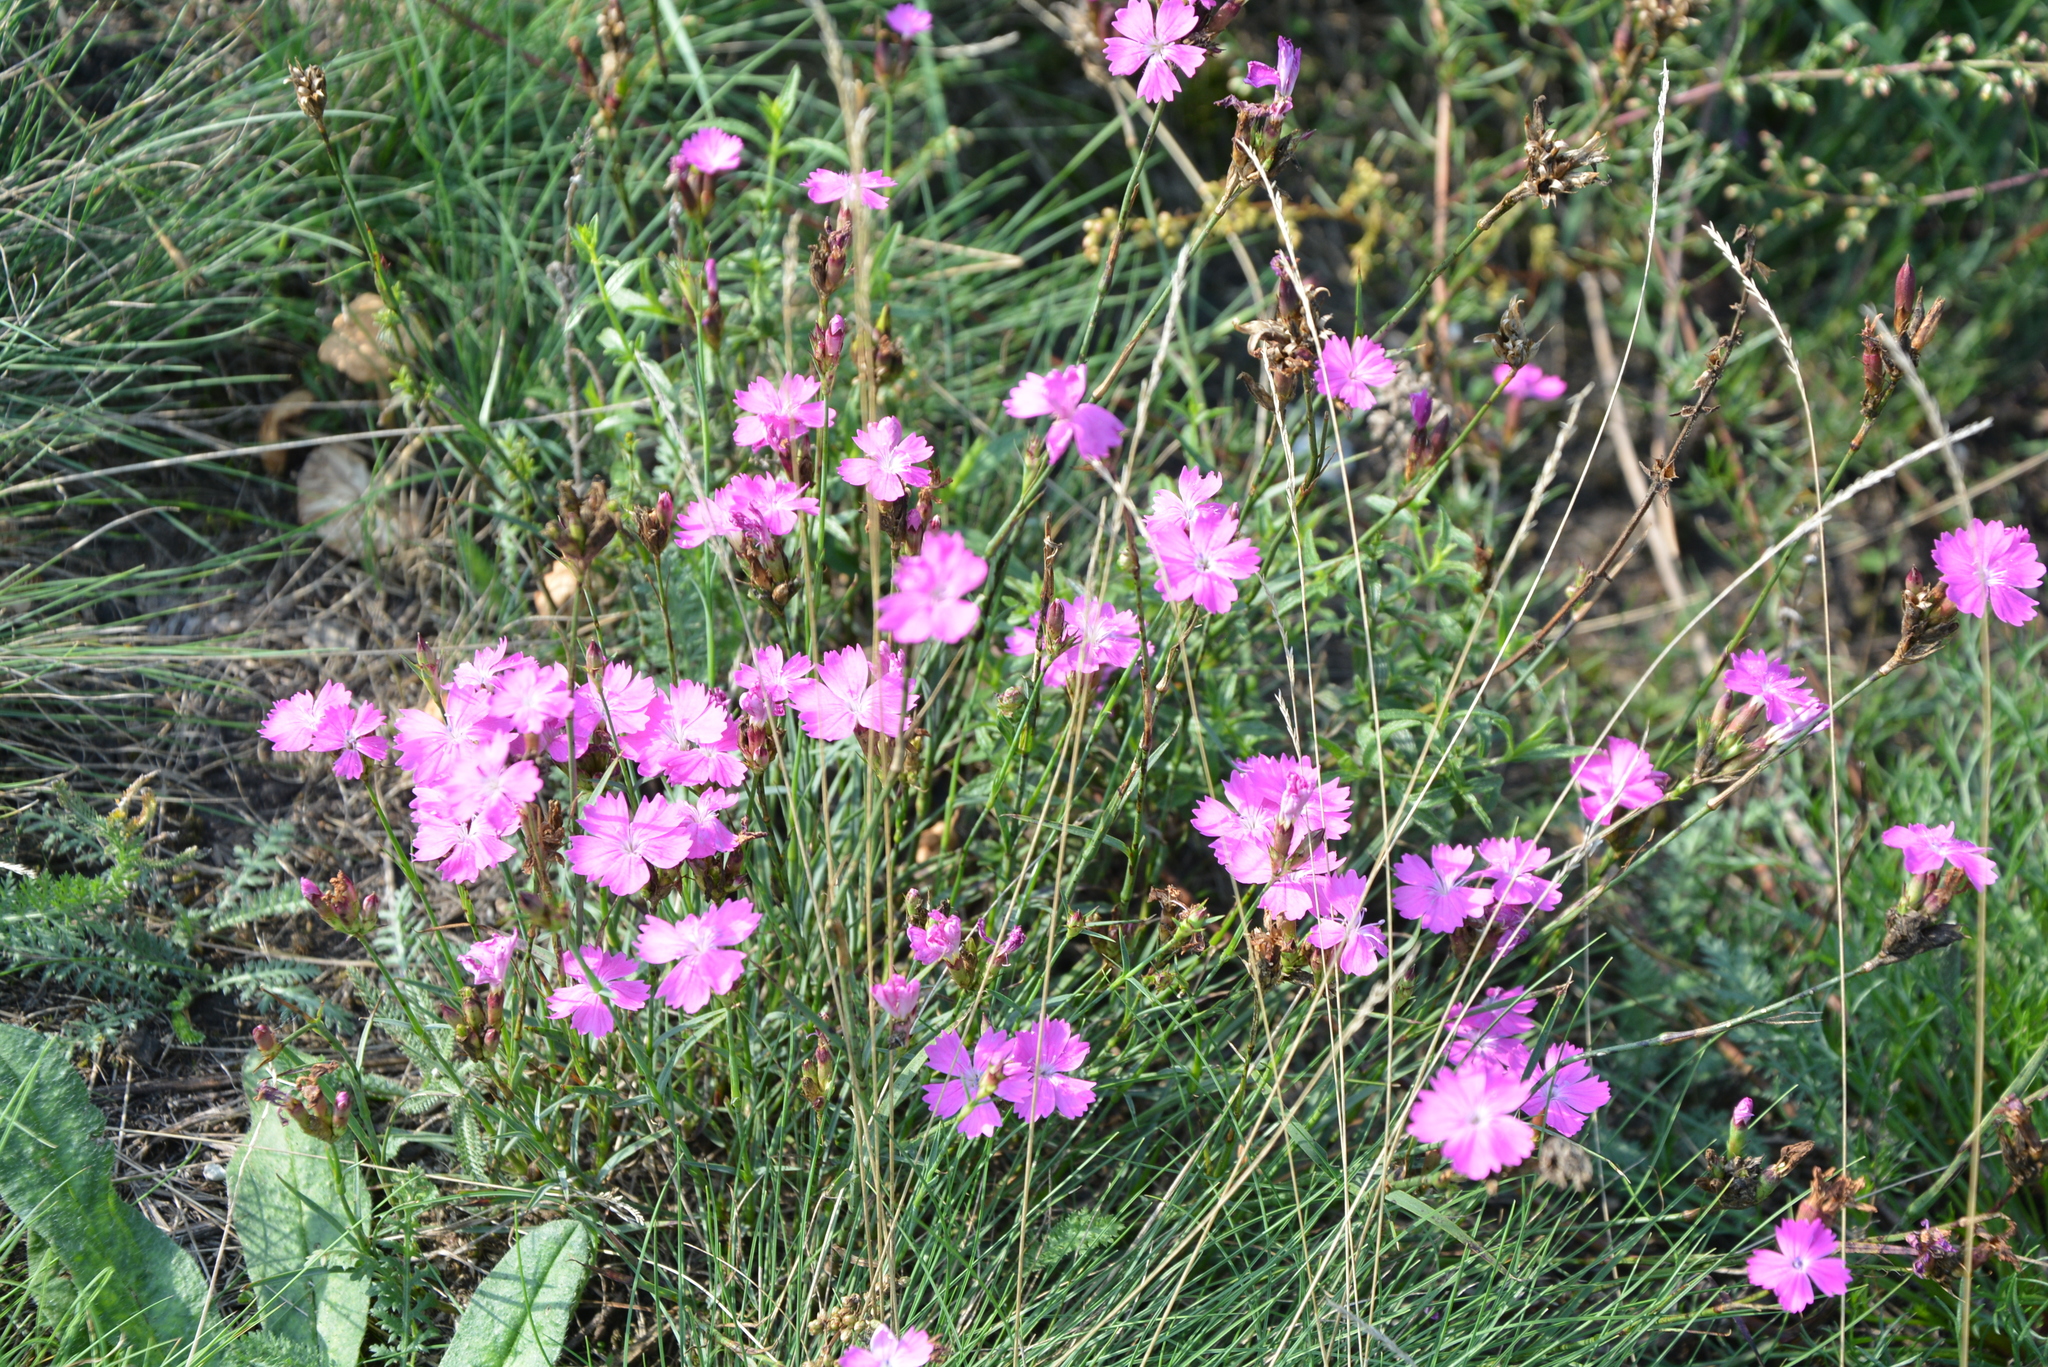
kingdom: Plantae
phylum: Tracheophyta
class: Magnoliopsida
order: Caryophyllales
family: Caryophyllaceae
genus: Dianthus
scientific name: Dianthus carthusianorum
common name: Carthusian pink
